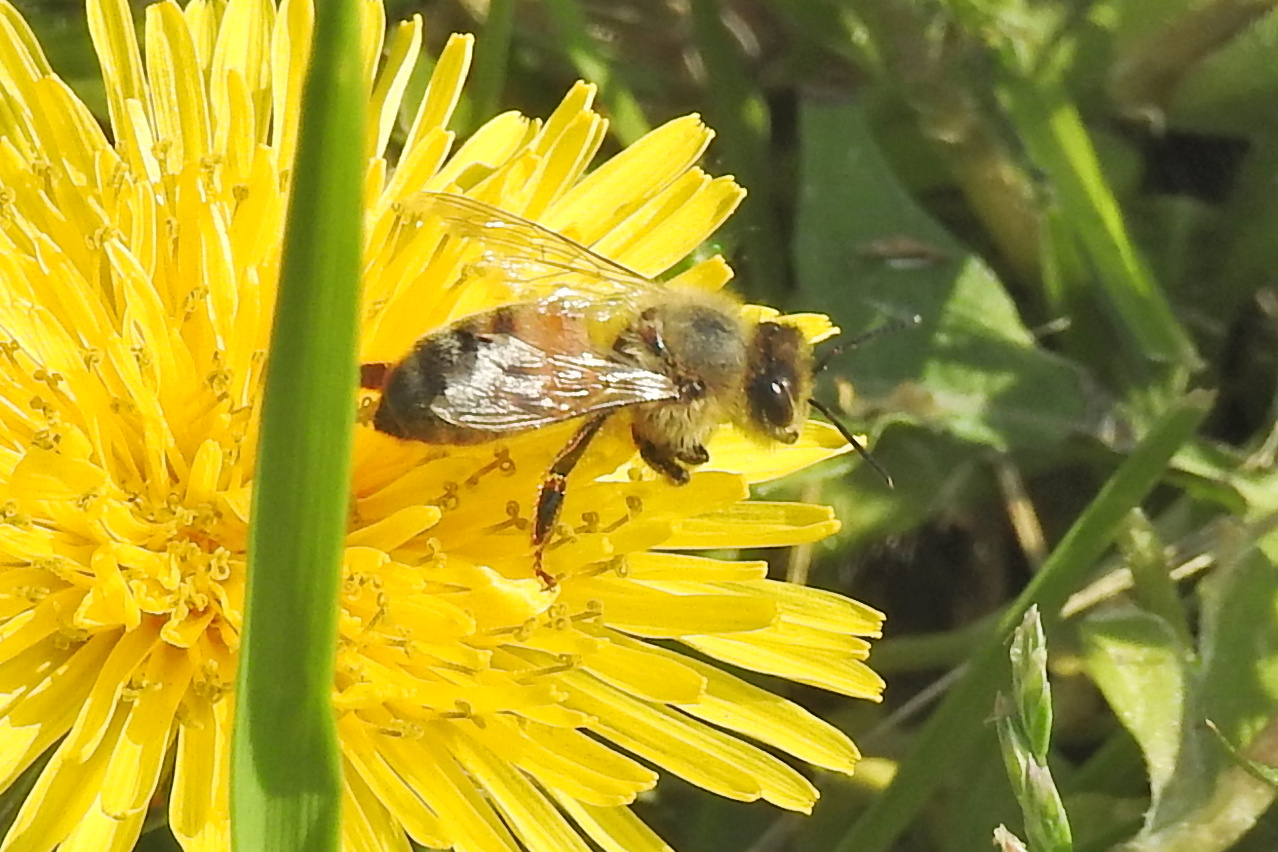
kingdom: Animalia
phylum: Arthropoda
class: Insecta
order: Hymenoptera
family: Apidae
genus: Apis
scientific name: Apis mellifera
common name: Honey bee
